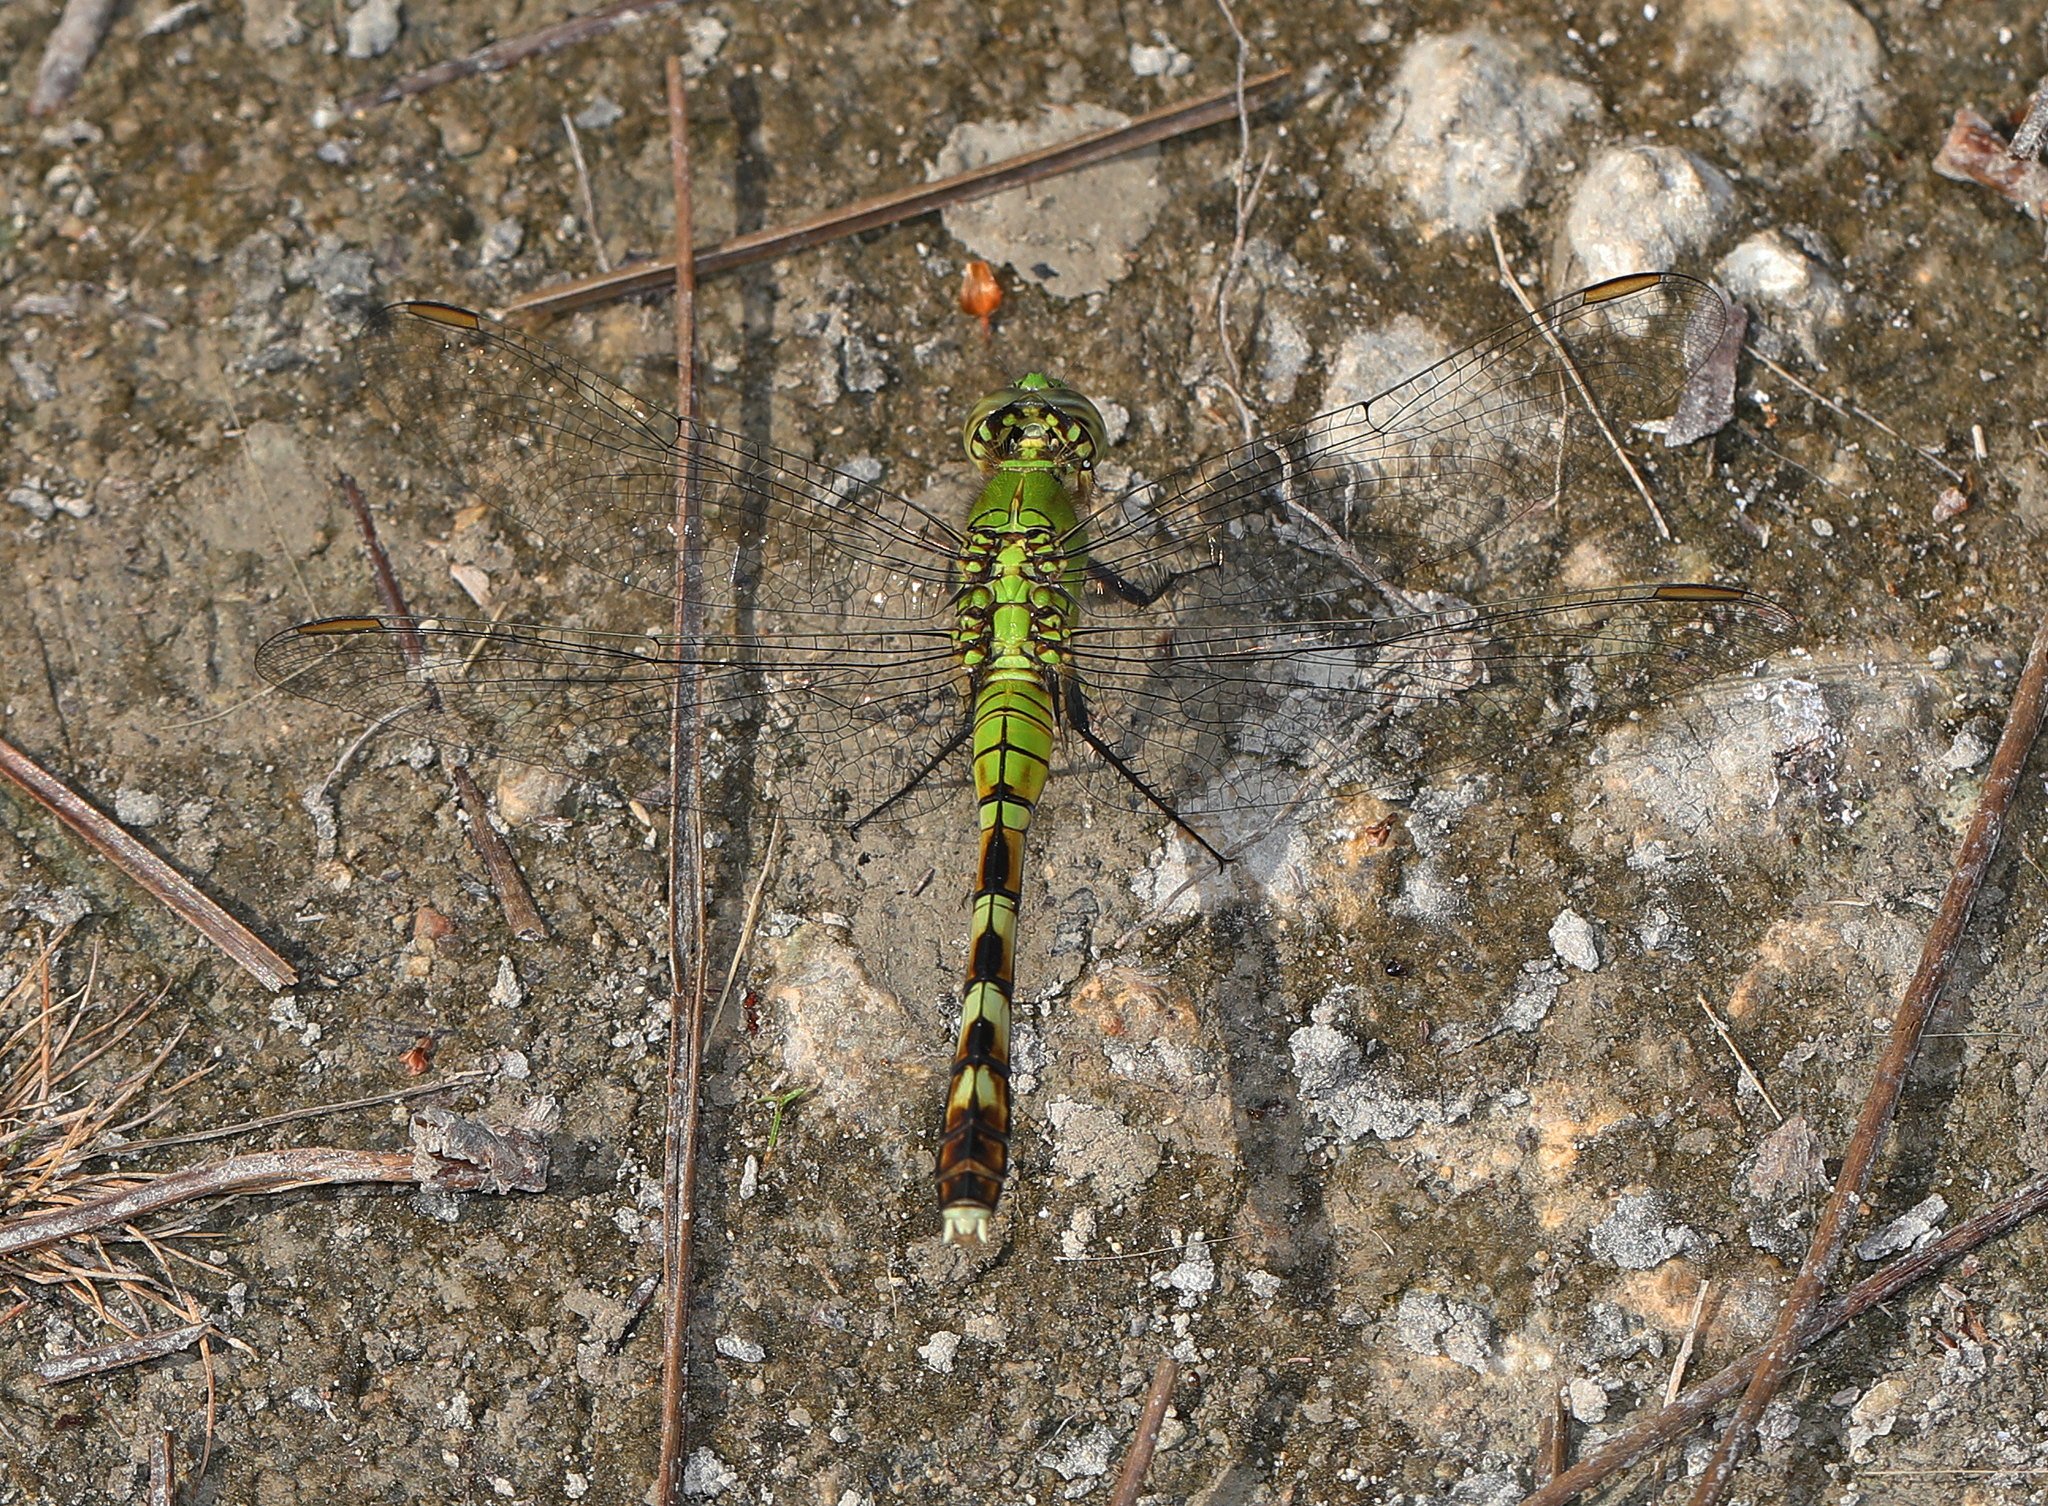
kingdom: Animalia
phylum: Arthropoda
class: Insecta
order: Odonata
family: Libellulidae
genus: Erythemis
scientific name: Erythemis simplicicollis
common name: Eastern pondhawk
